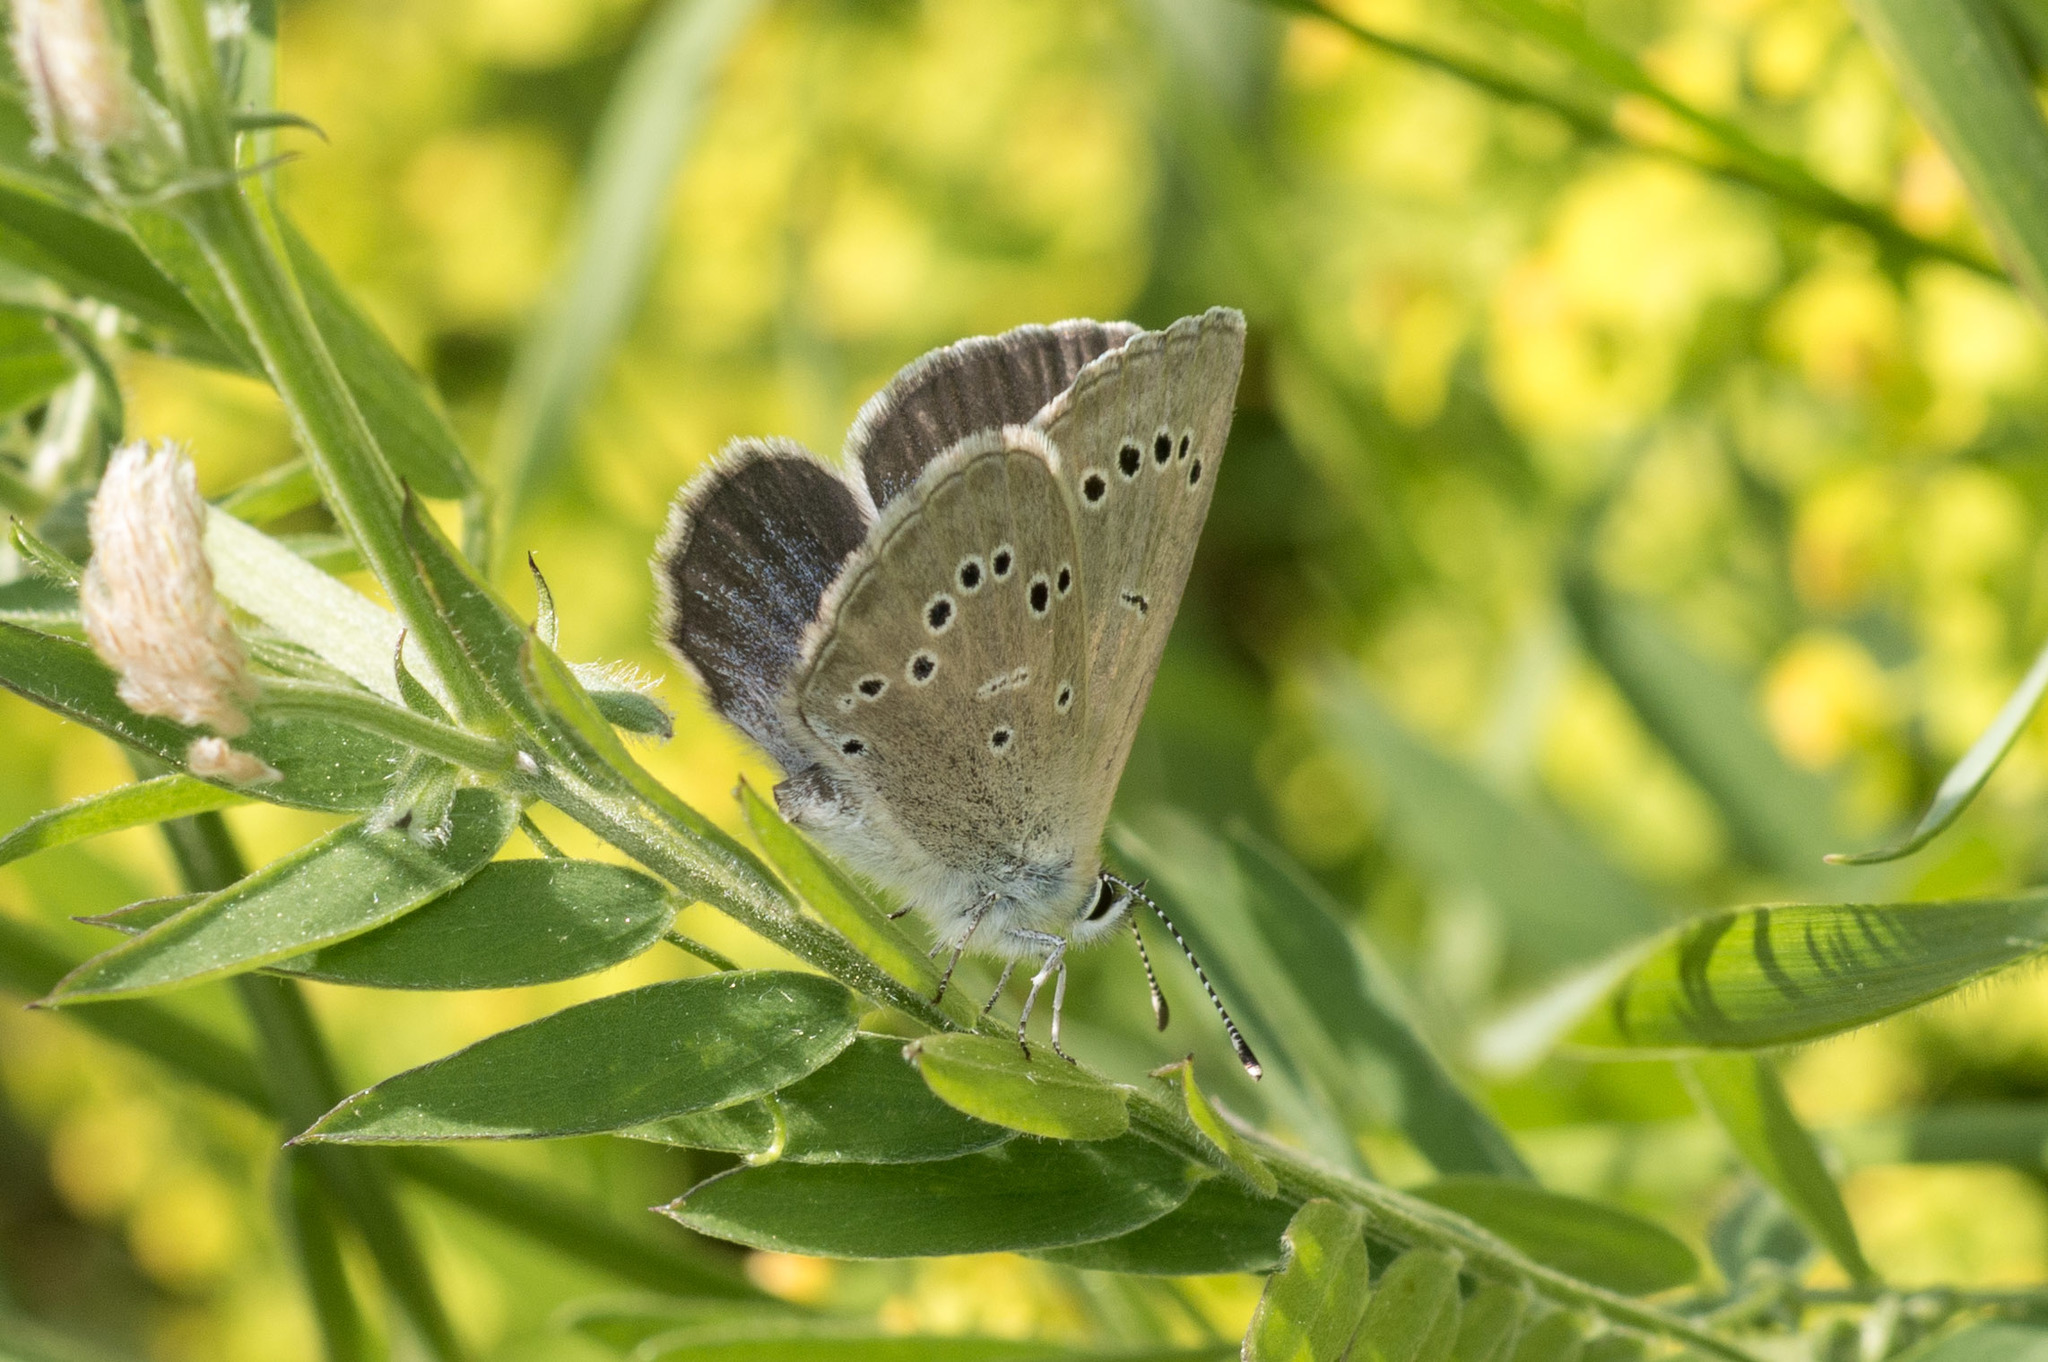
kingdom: Animalia
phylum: Arthropoda
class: Insecta
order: Lepidoptera
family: Lycaenidae
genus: Glaucopsyche
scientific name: Glaucopsyche lygdamus
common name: Silvery blue
